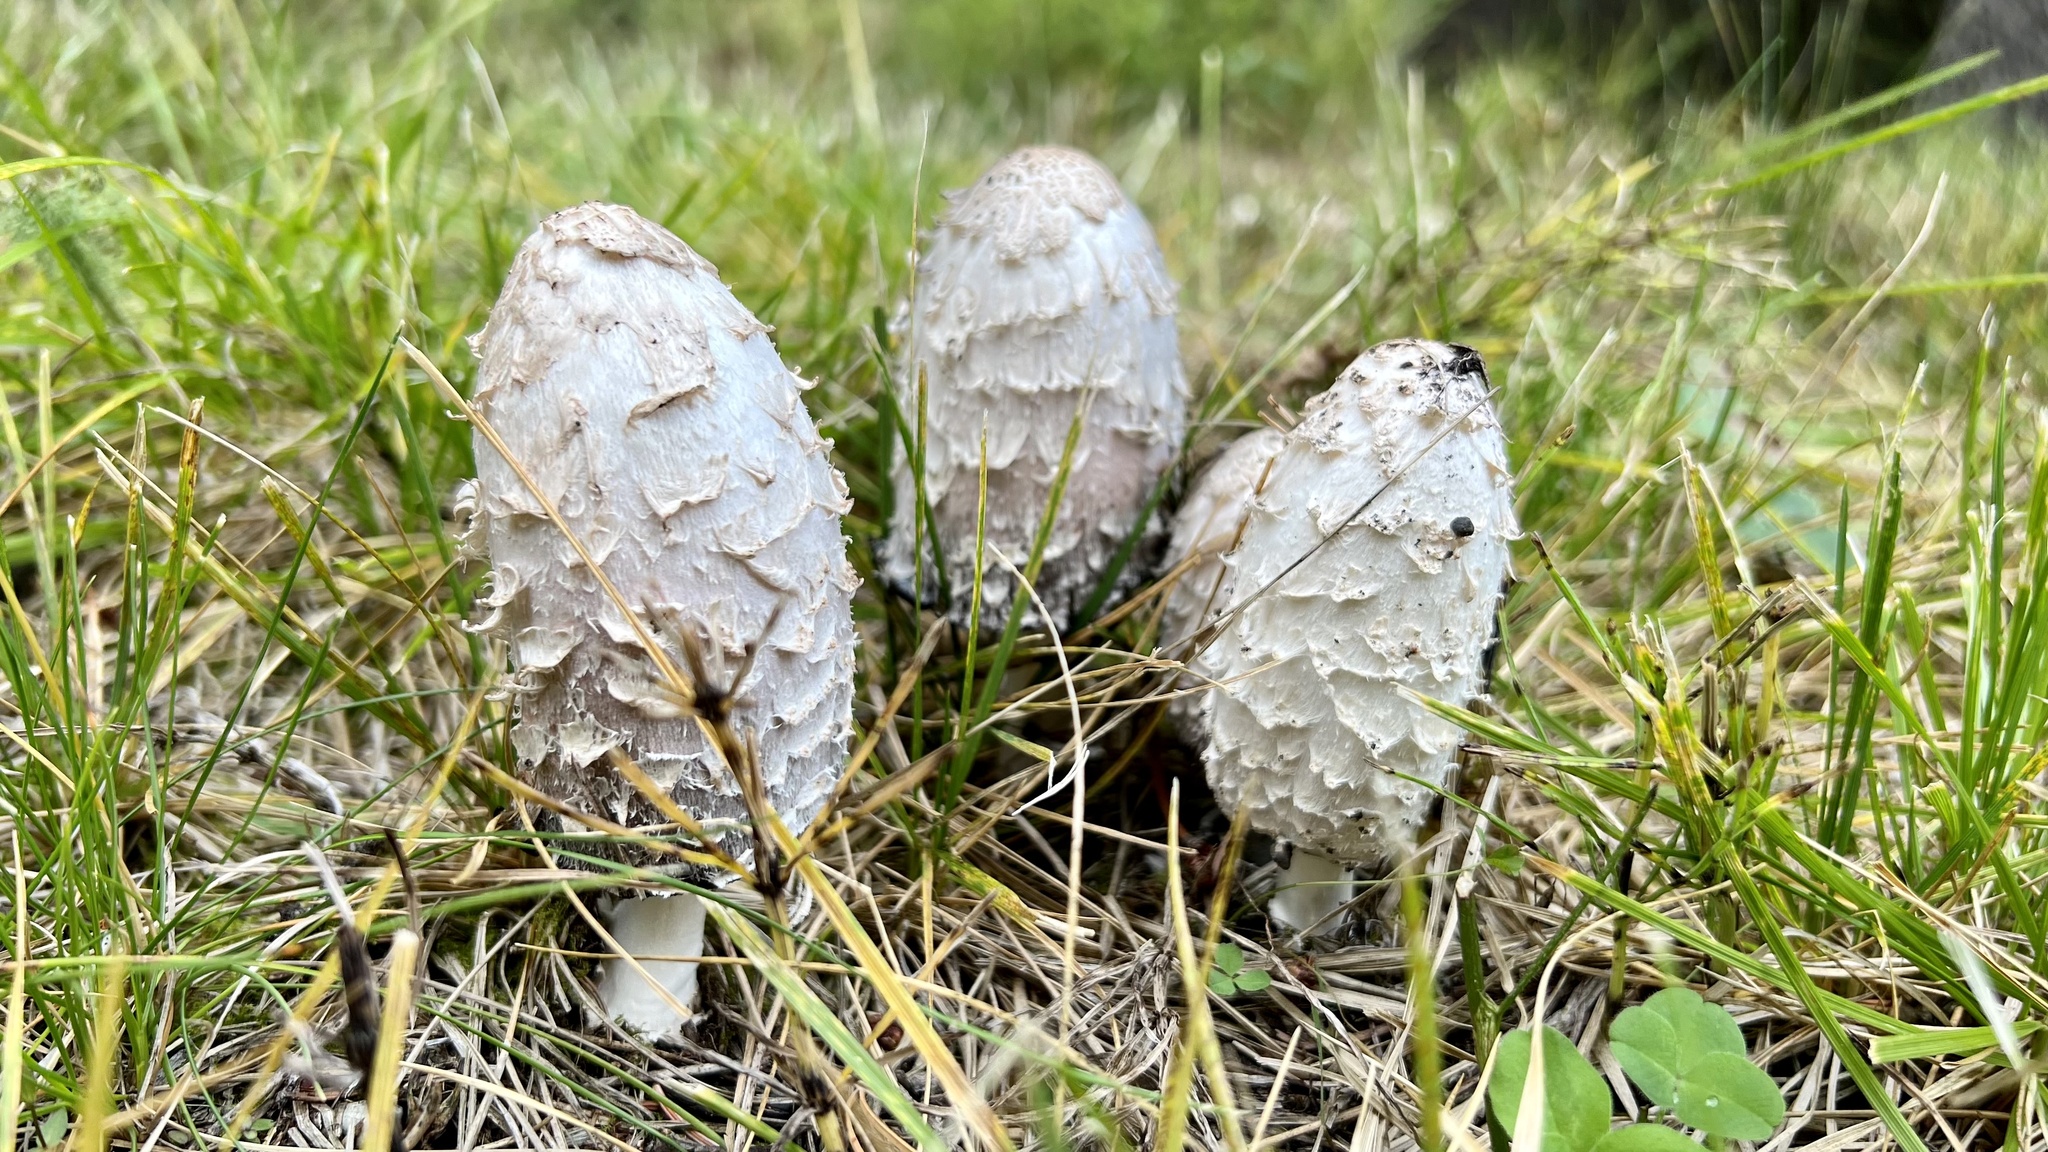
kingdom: Fungi
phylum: Basidiomycota
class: Agaricomycetes
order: Agaricales
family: Agaricaceae
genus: Coprinus
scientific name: Coprinus comatus
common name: Lawyer's wig
